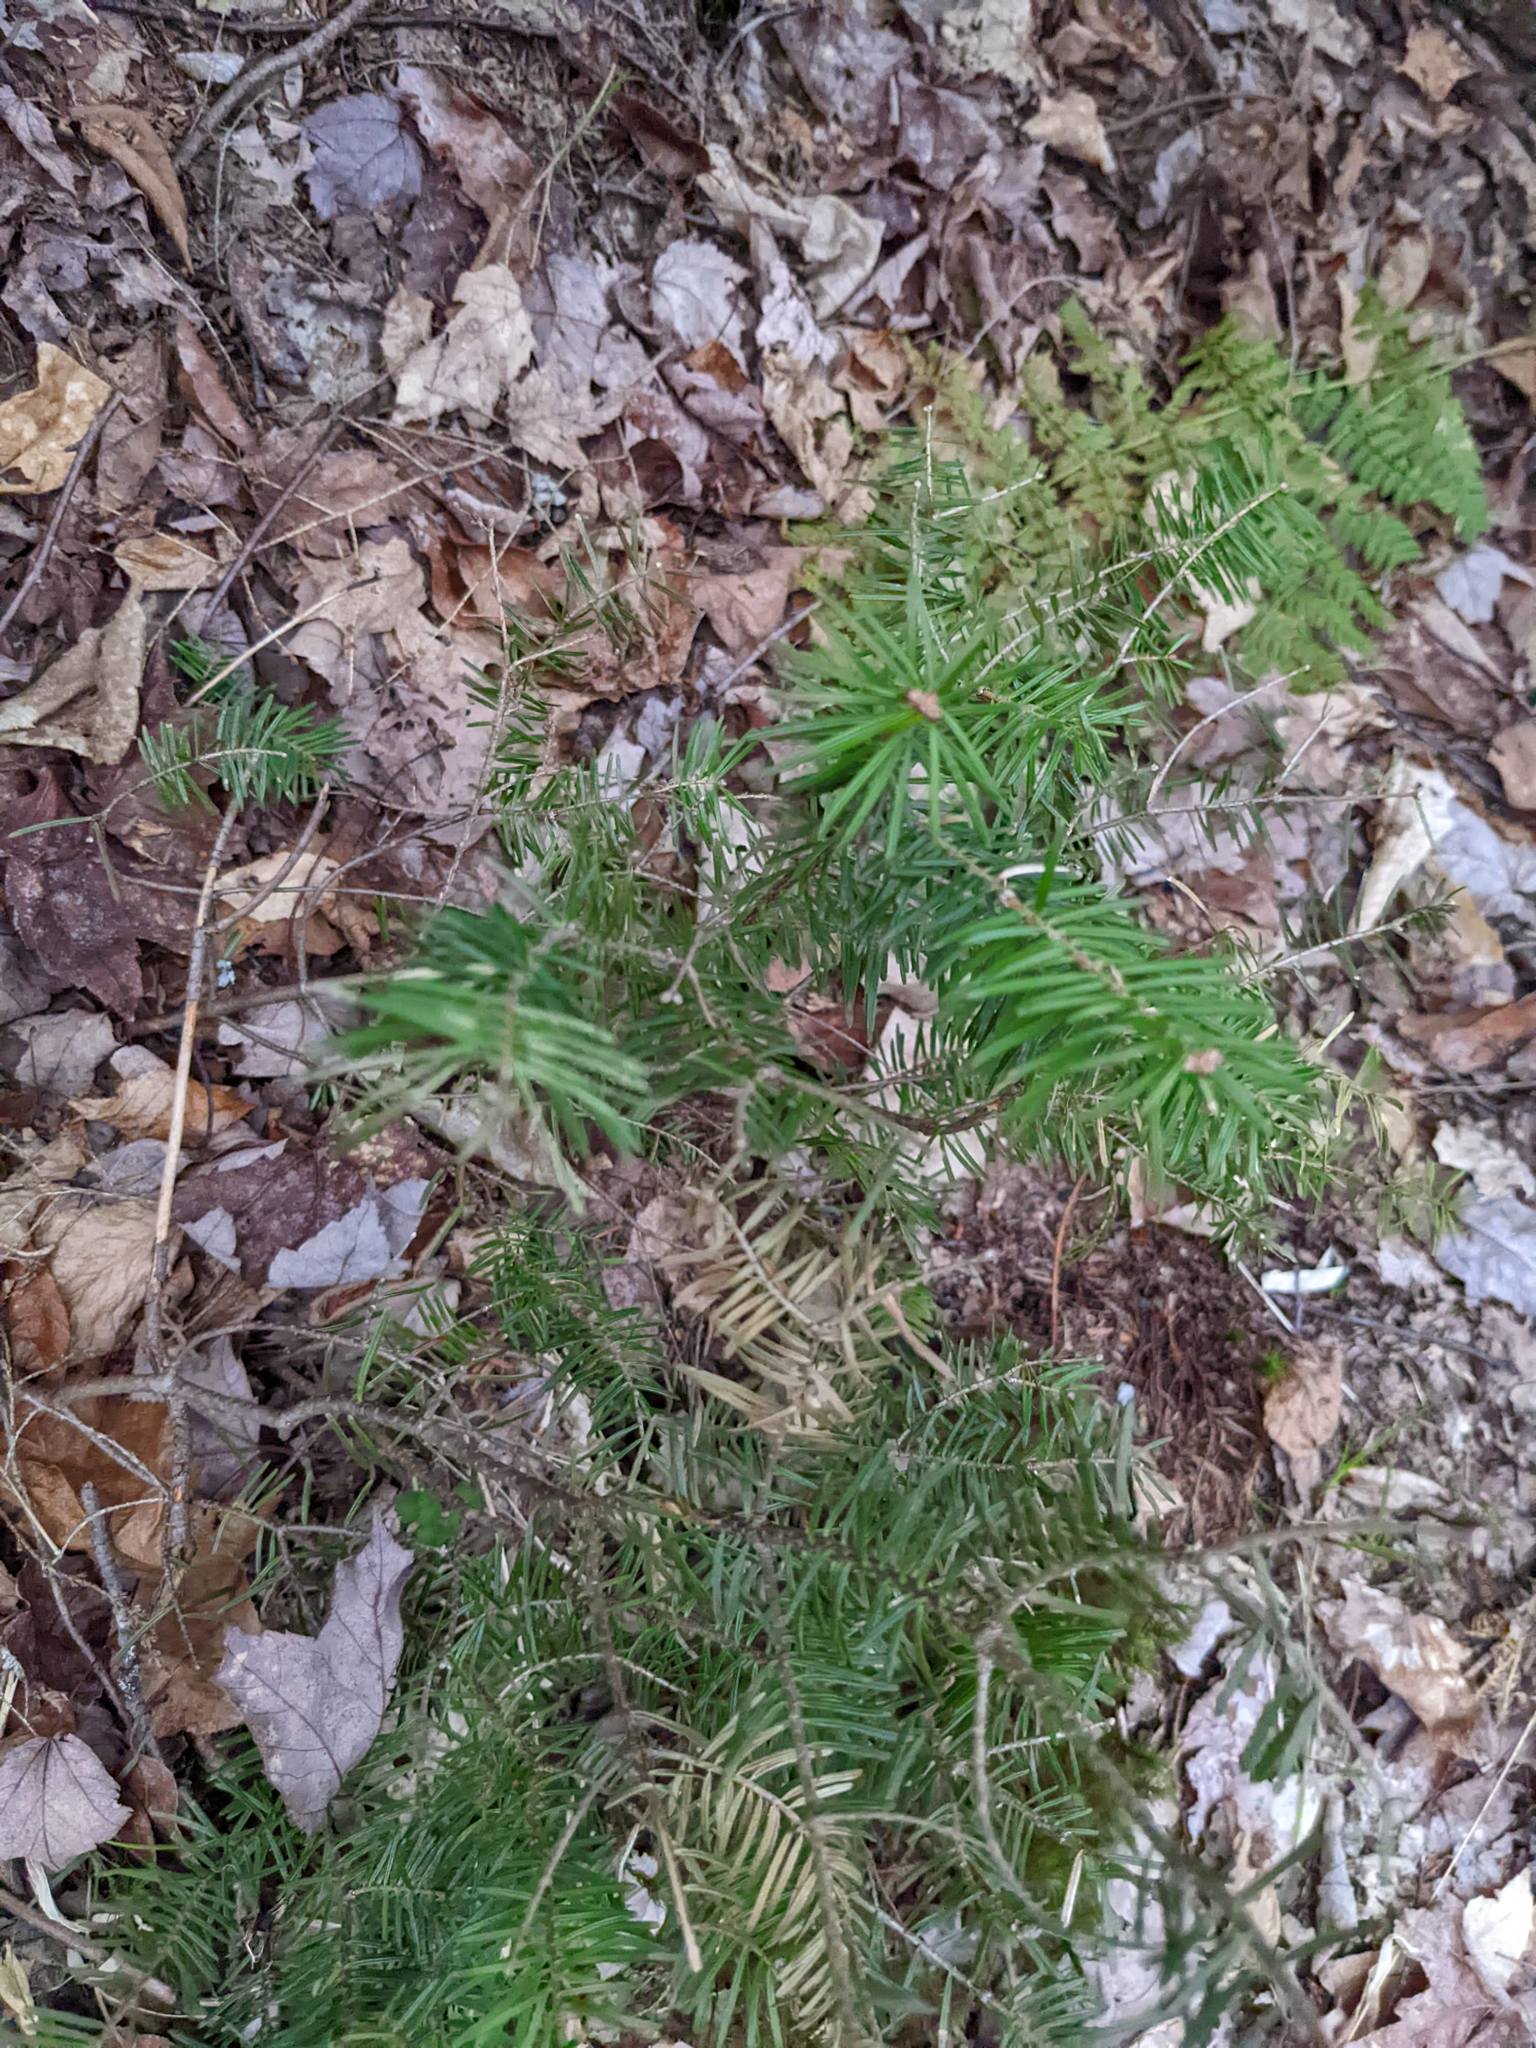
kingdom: Plantae
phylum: Tracheophyta
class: Pinopsida
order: Pinales
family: Pinaceae
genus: Abies
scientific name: Abies balsamea
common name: Balsam fir
